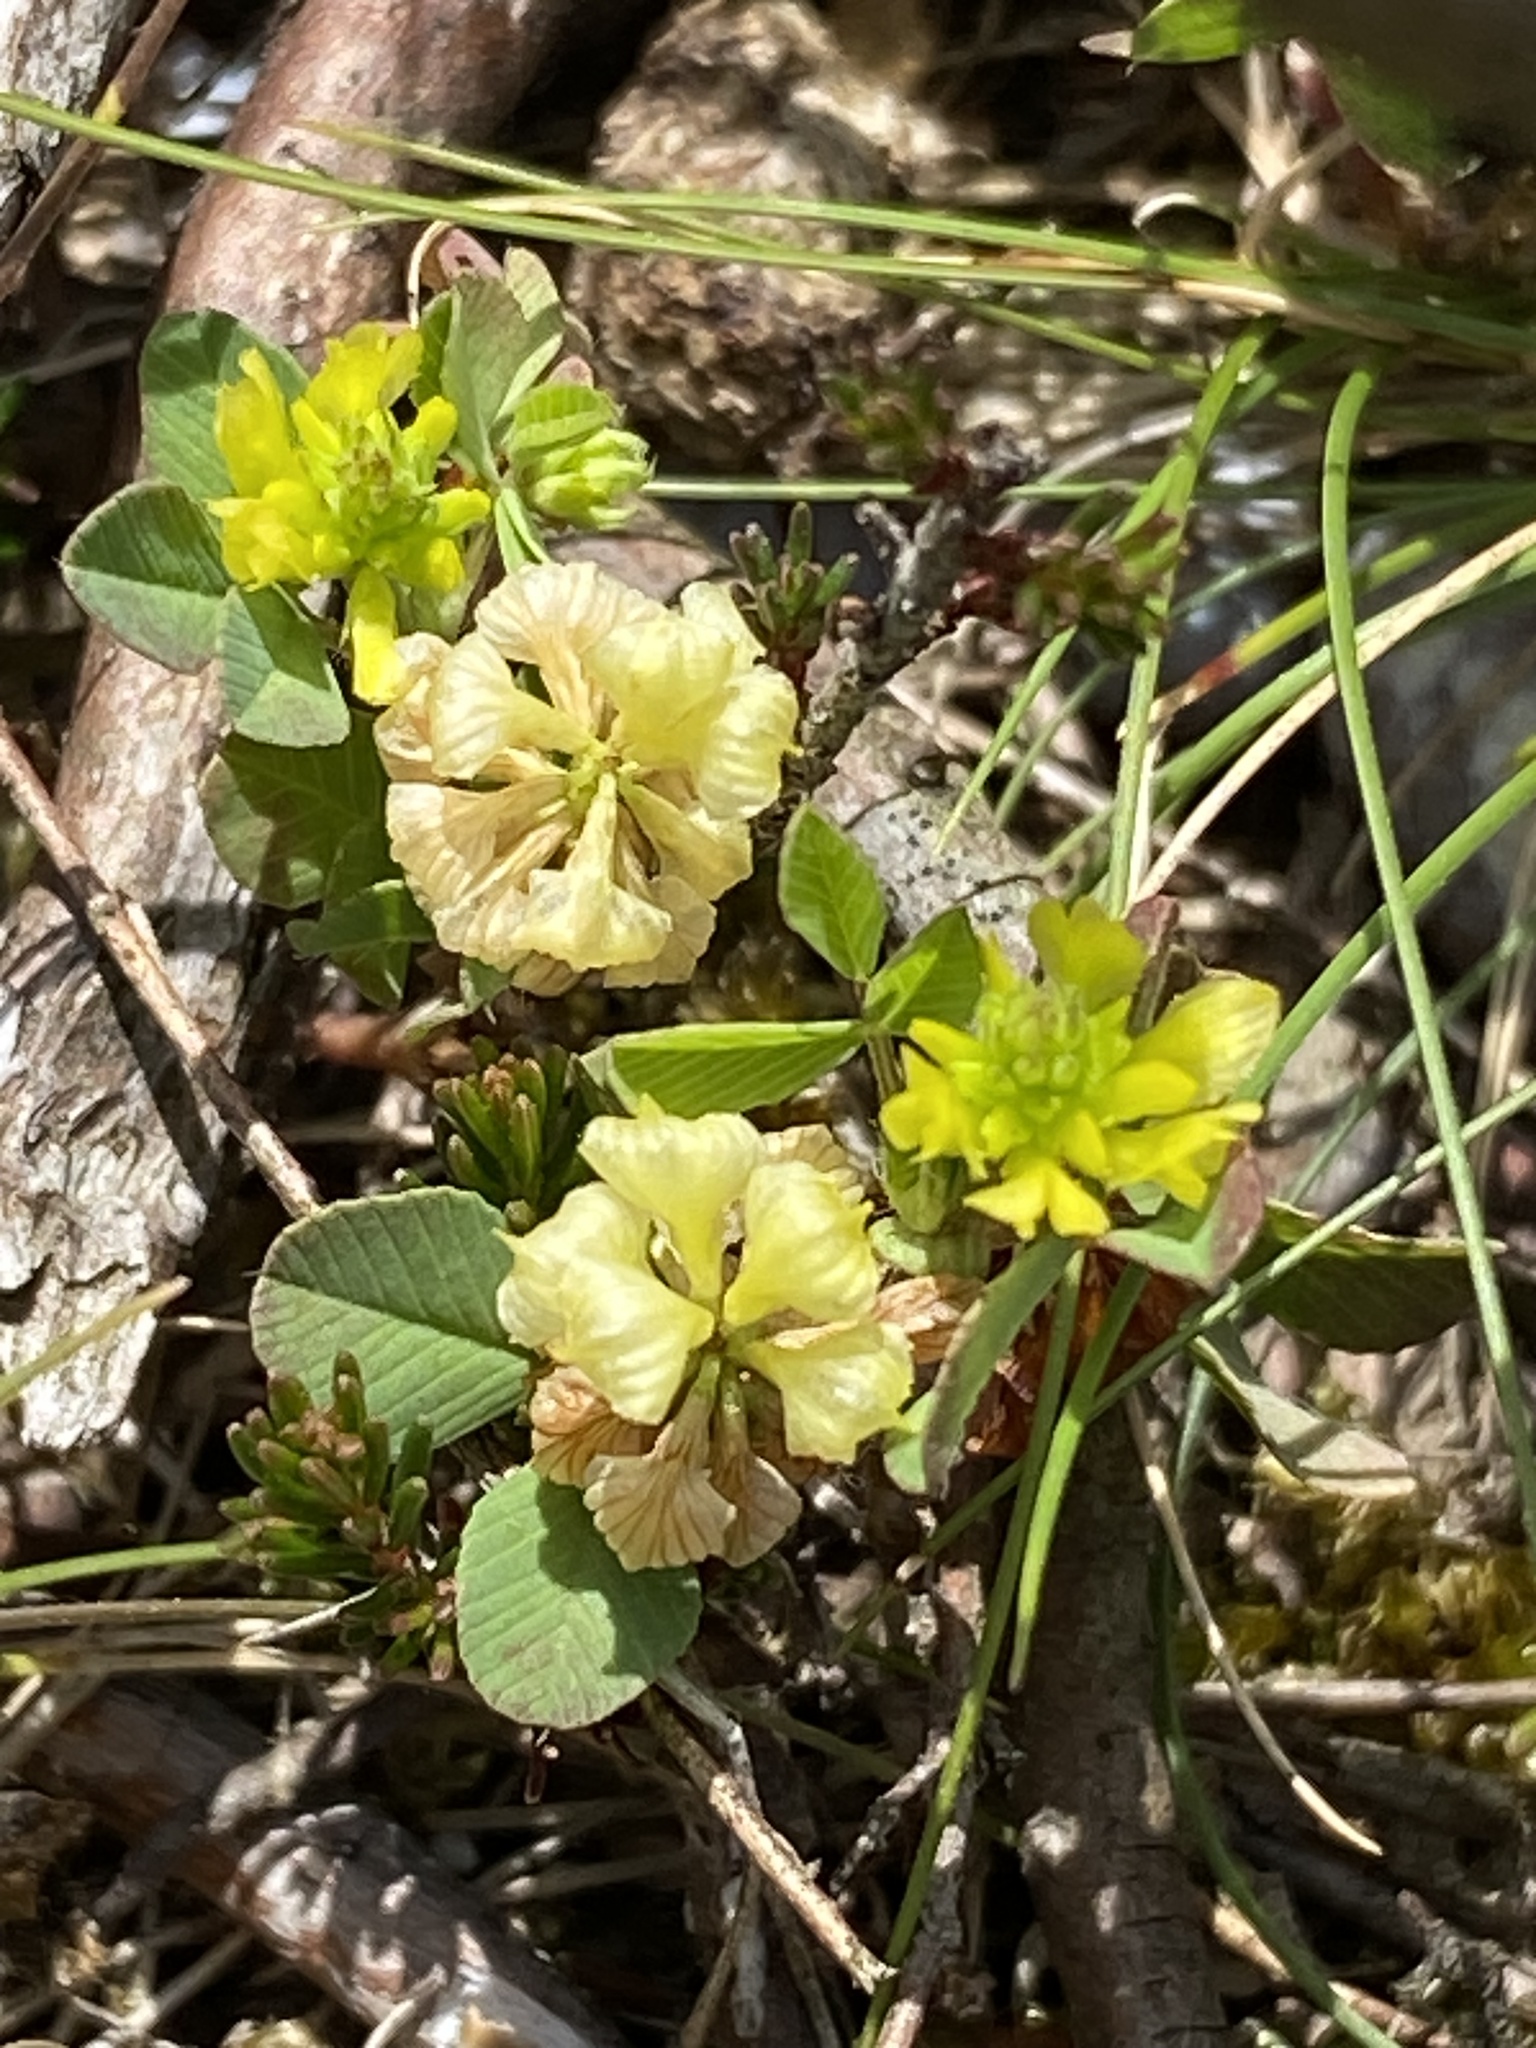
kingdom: Plantae
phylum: Tracheophyta
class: Magnoliopsida
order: Fabales
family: Fabaceae
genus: Trifolium
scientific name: Trifolium campestre
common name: Field clover
